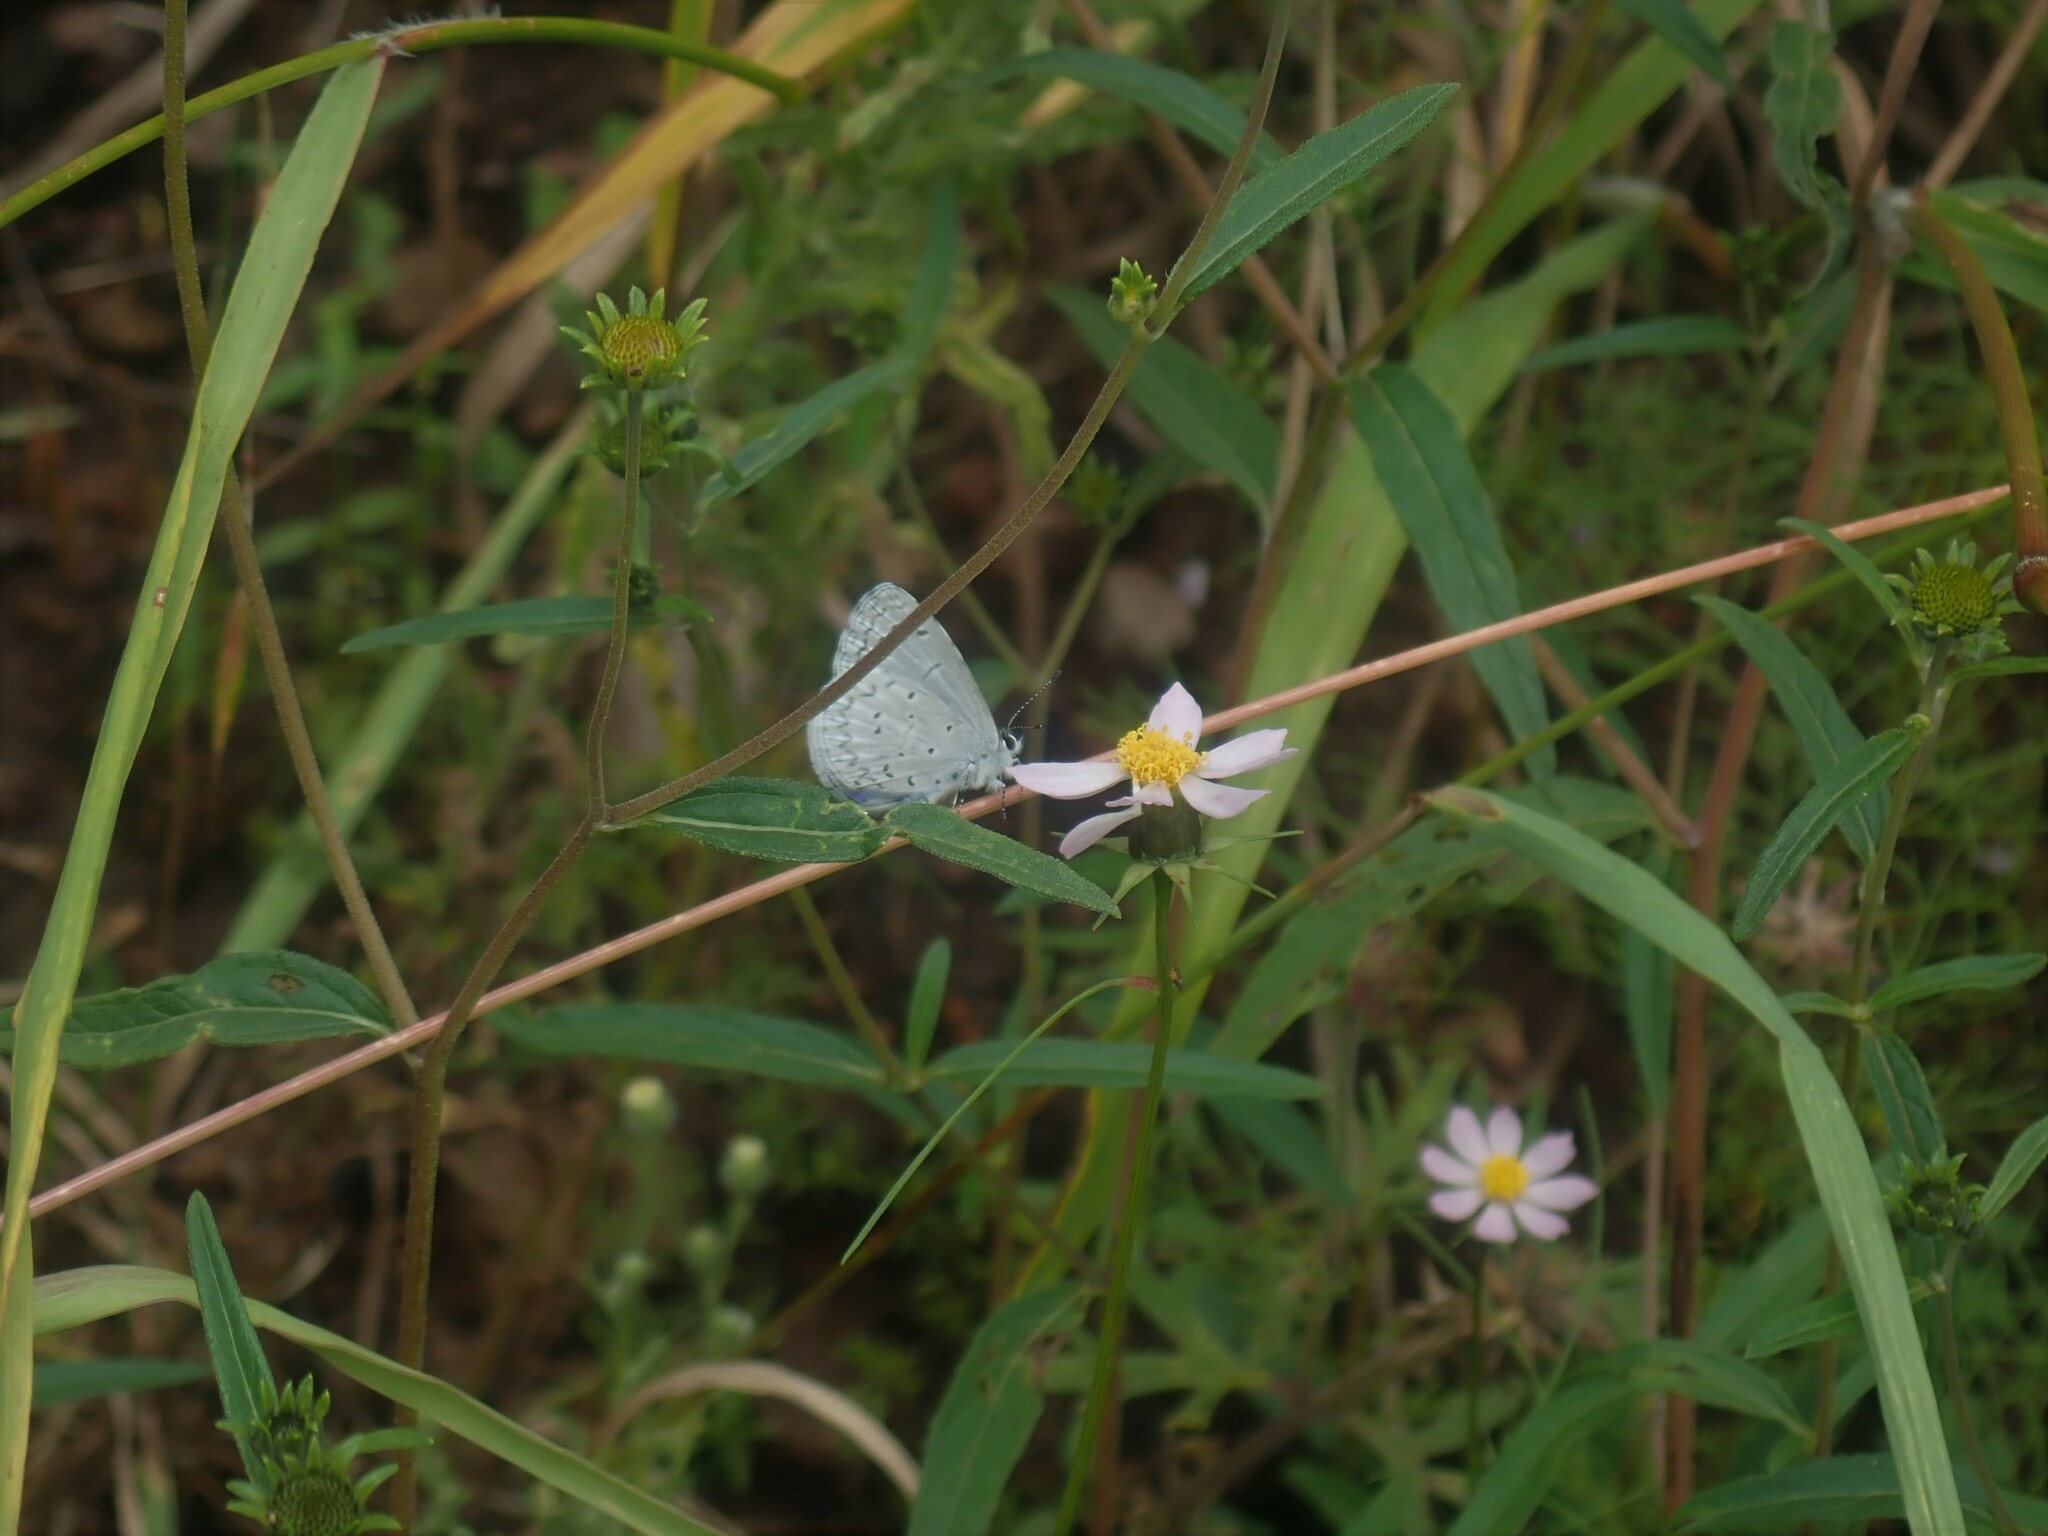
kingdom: Animalia
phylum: Arthropoda
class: Insecta
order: Lepidoptera
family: Lycaenidae
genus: Celastrina
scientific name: Celastrina ladon
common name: Spring azure
